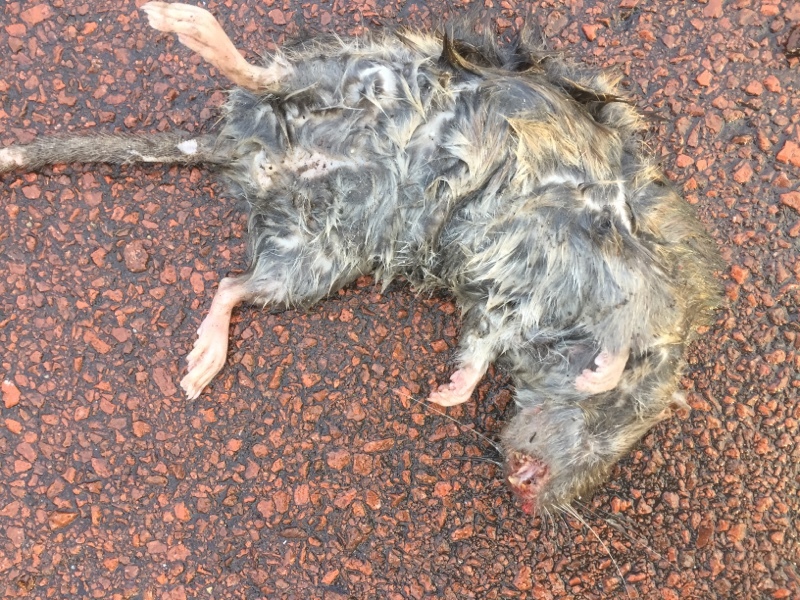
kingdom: Animalia
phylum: Chordata
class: Mammalia
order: Rodentia
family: Muridae
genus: Rattus
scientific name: Rattus norvegicus
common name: Brown rat
